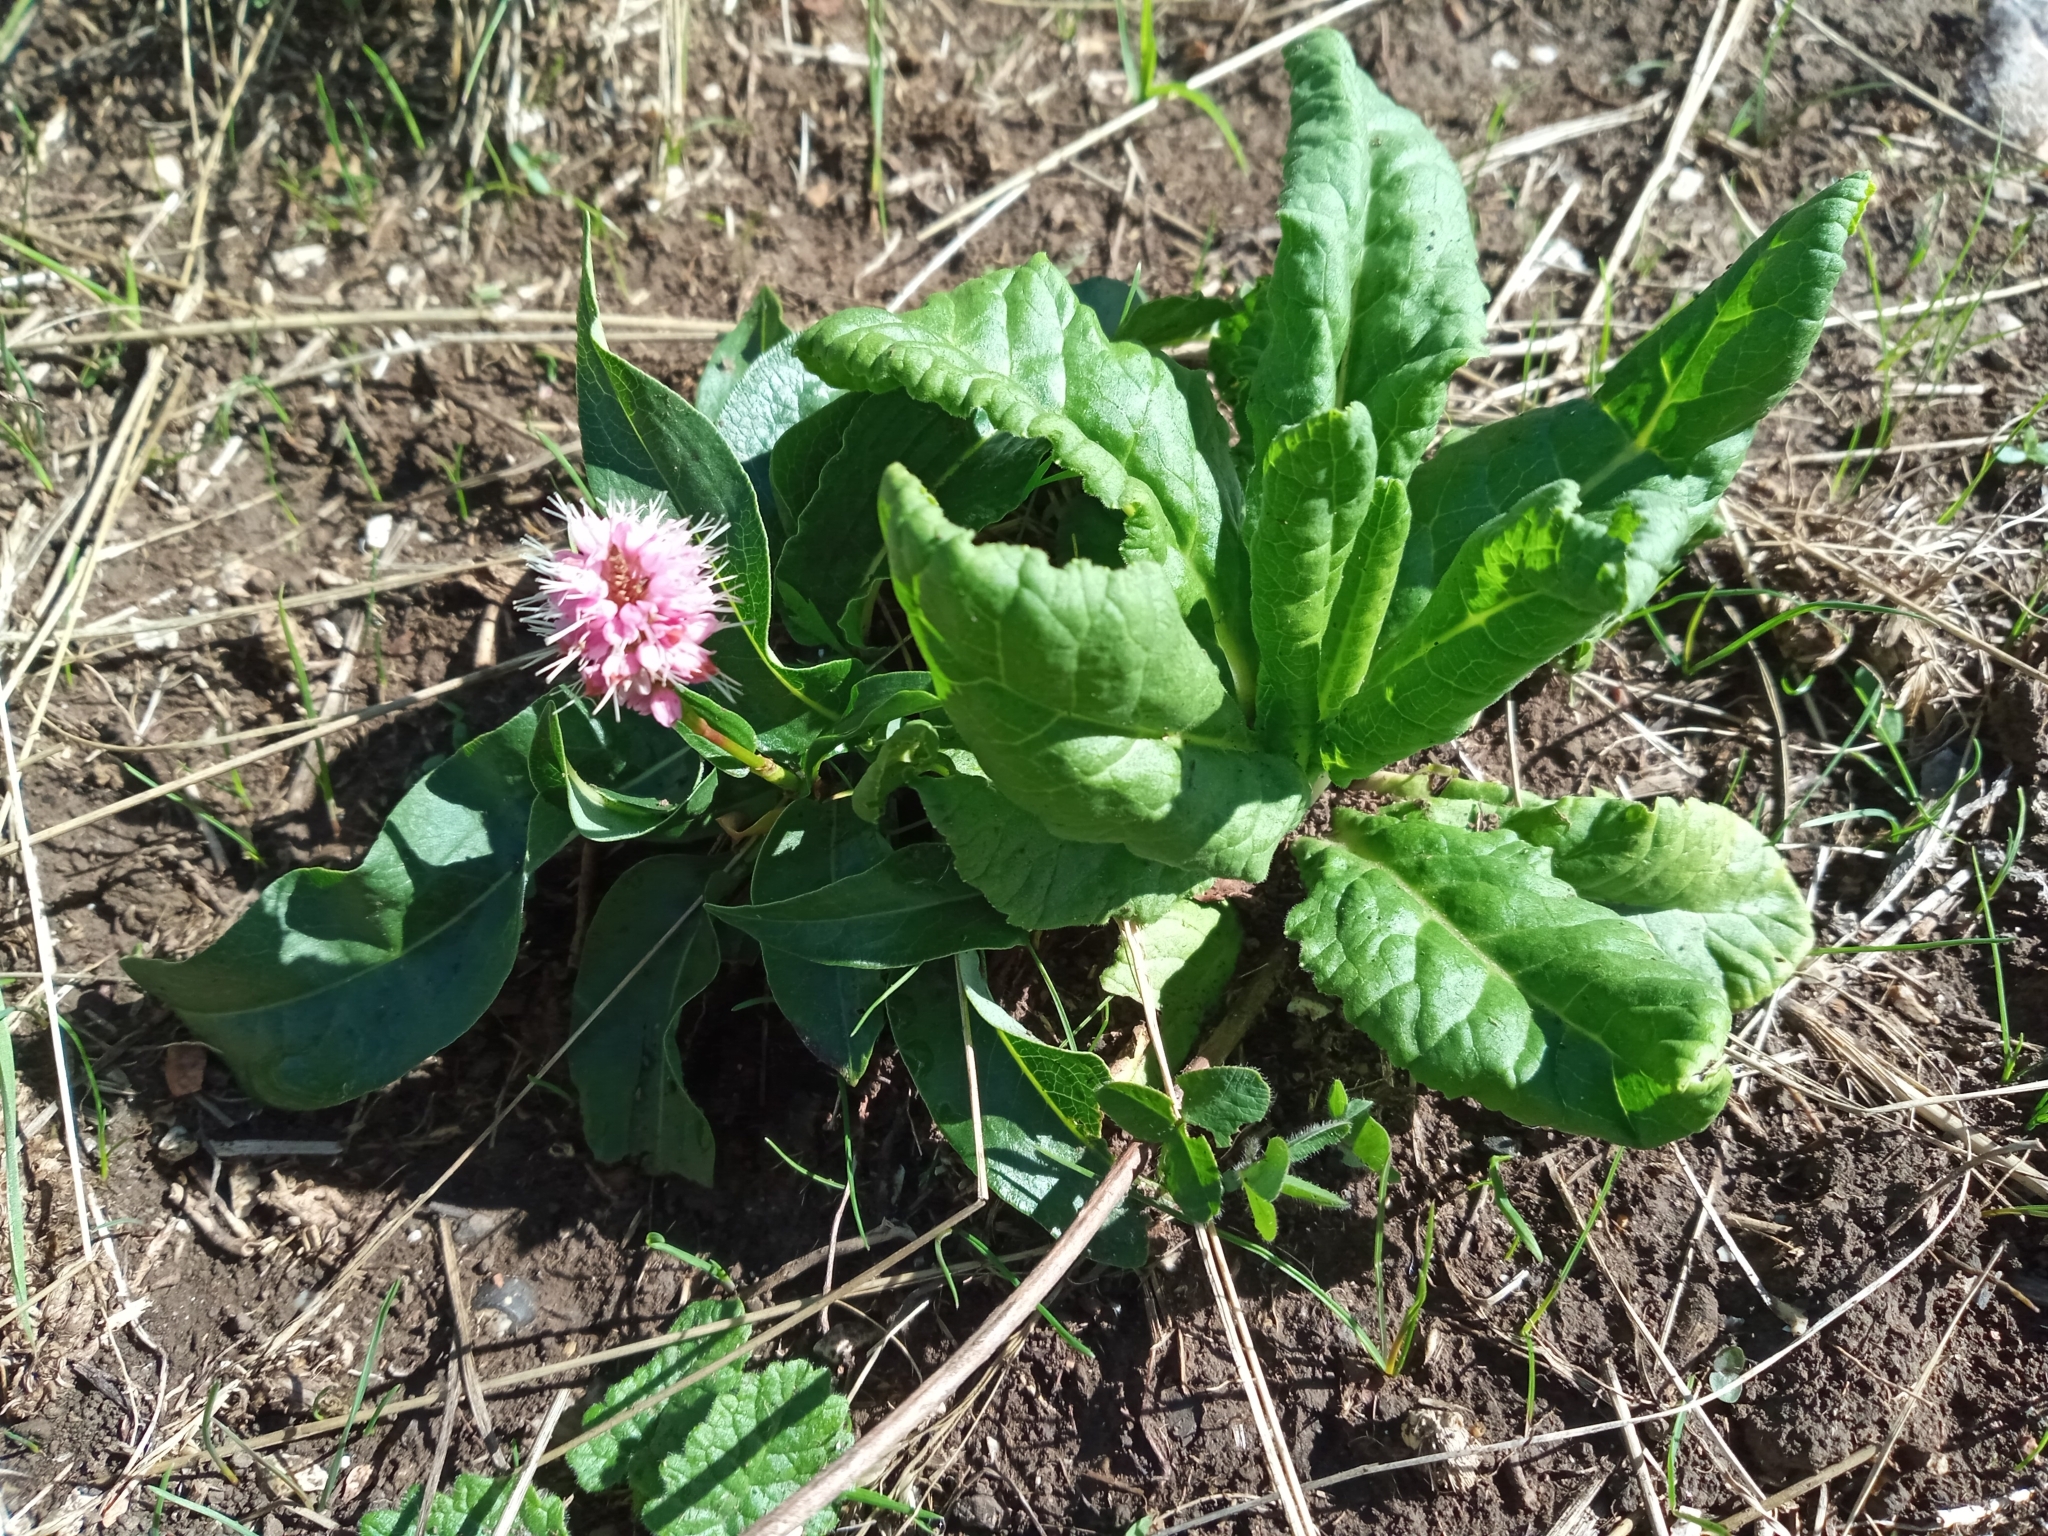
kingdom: Plantae
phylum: Tracheophyta
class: Magnoliopsida
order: Caryophyllales
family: Polygonaceae
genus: Bistorta
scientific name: Bistorta officinalis
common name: Common bistort
